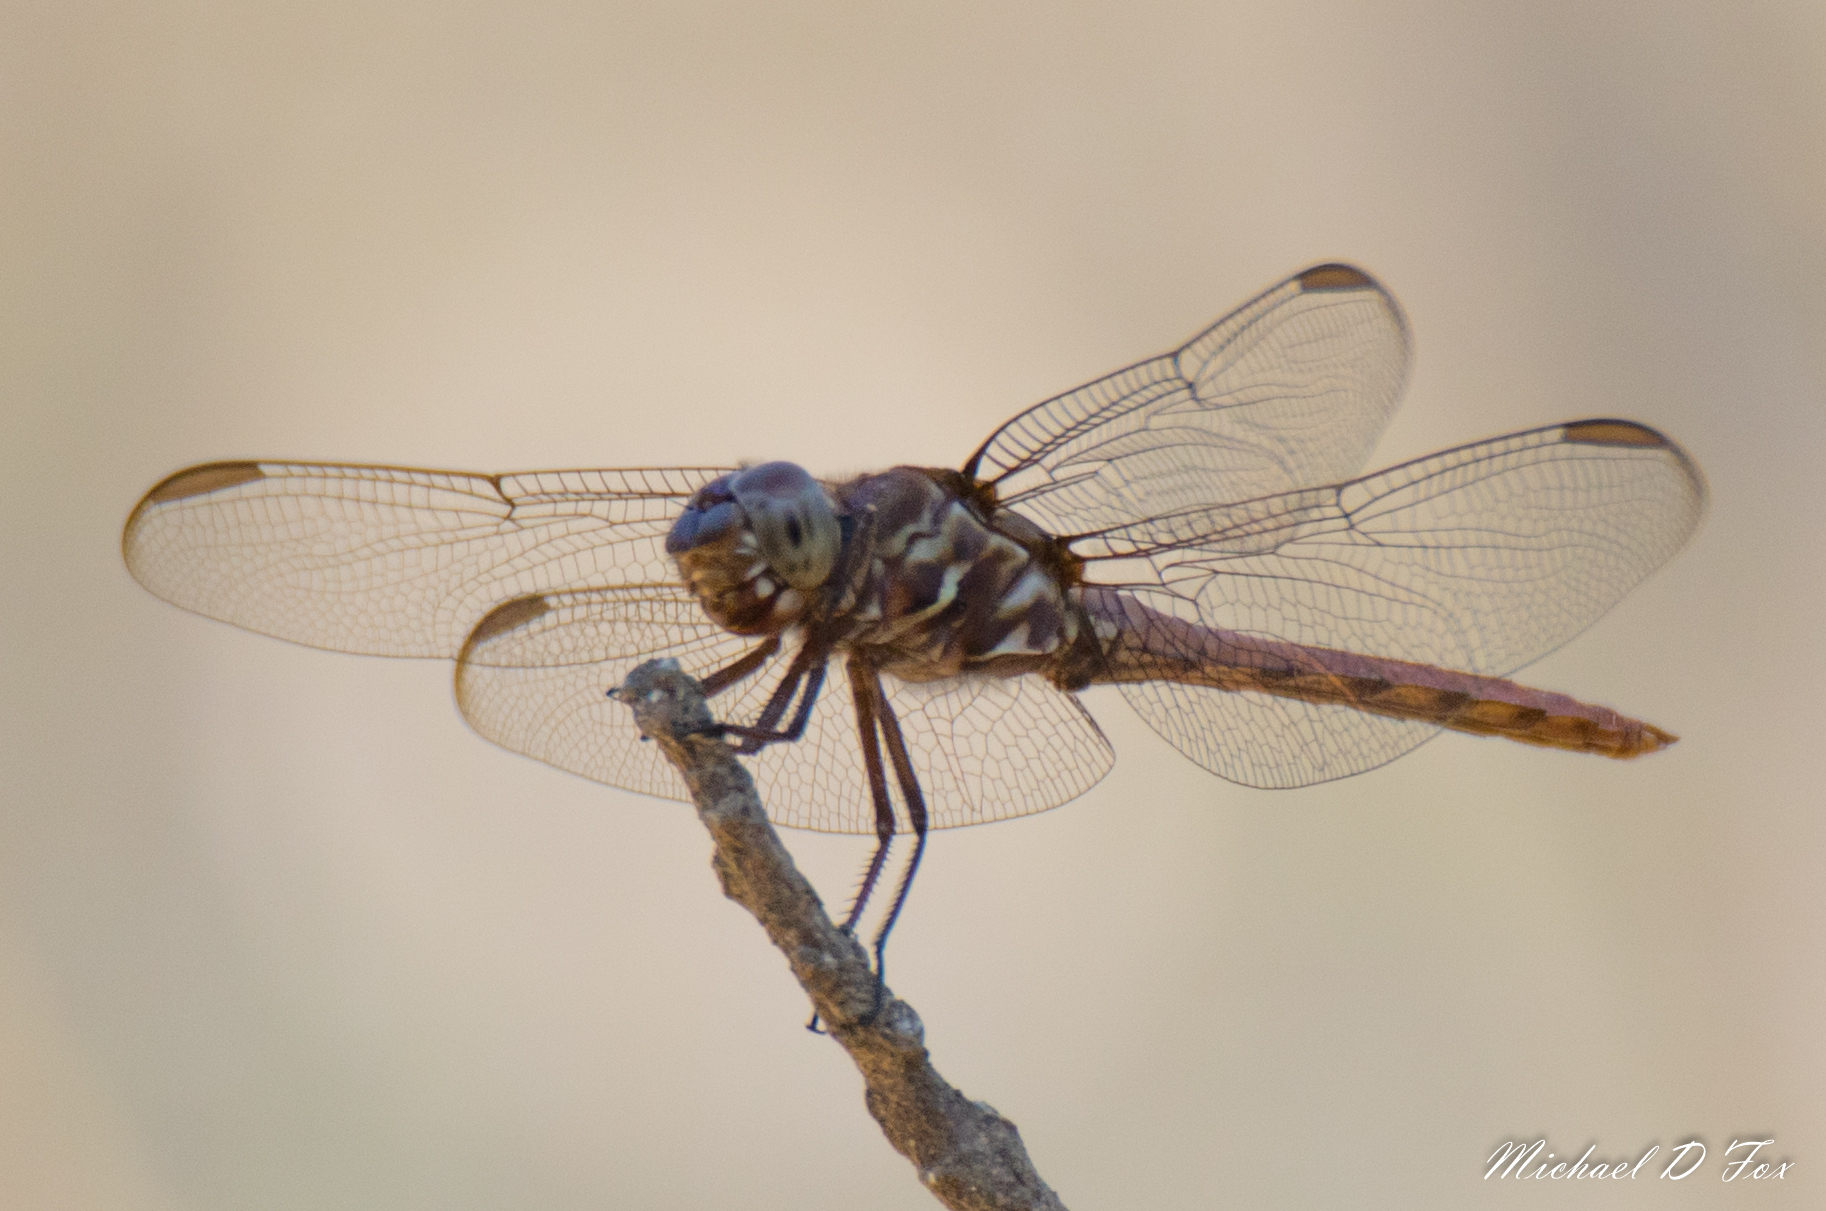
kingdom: Animalia
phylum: Arthropoda
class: Insecta
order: Odonata
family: Libellulidae
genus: Orthemis
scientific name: Orthemis ferruginea
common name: Roseate skimmer
